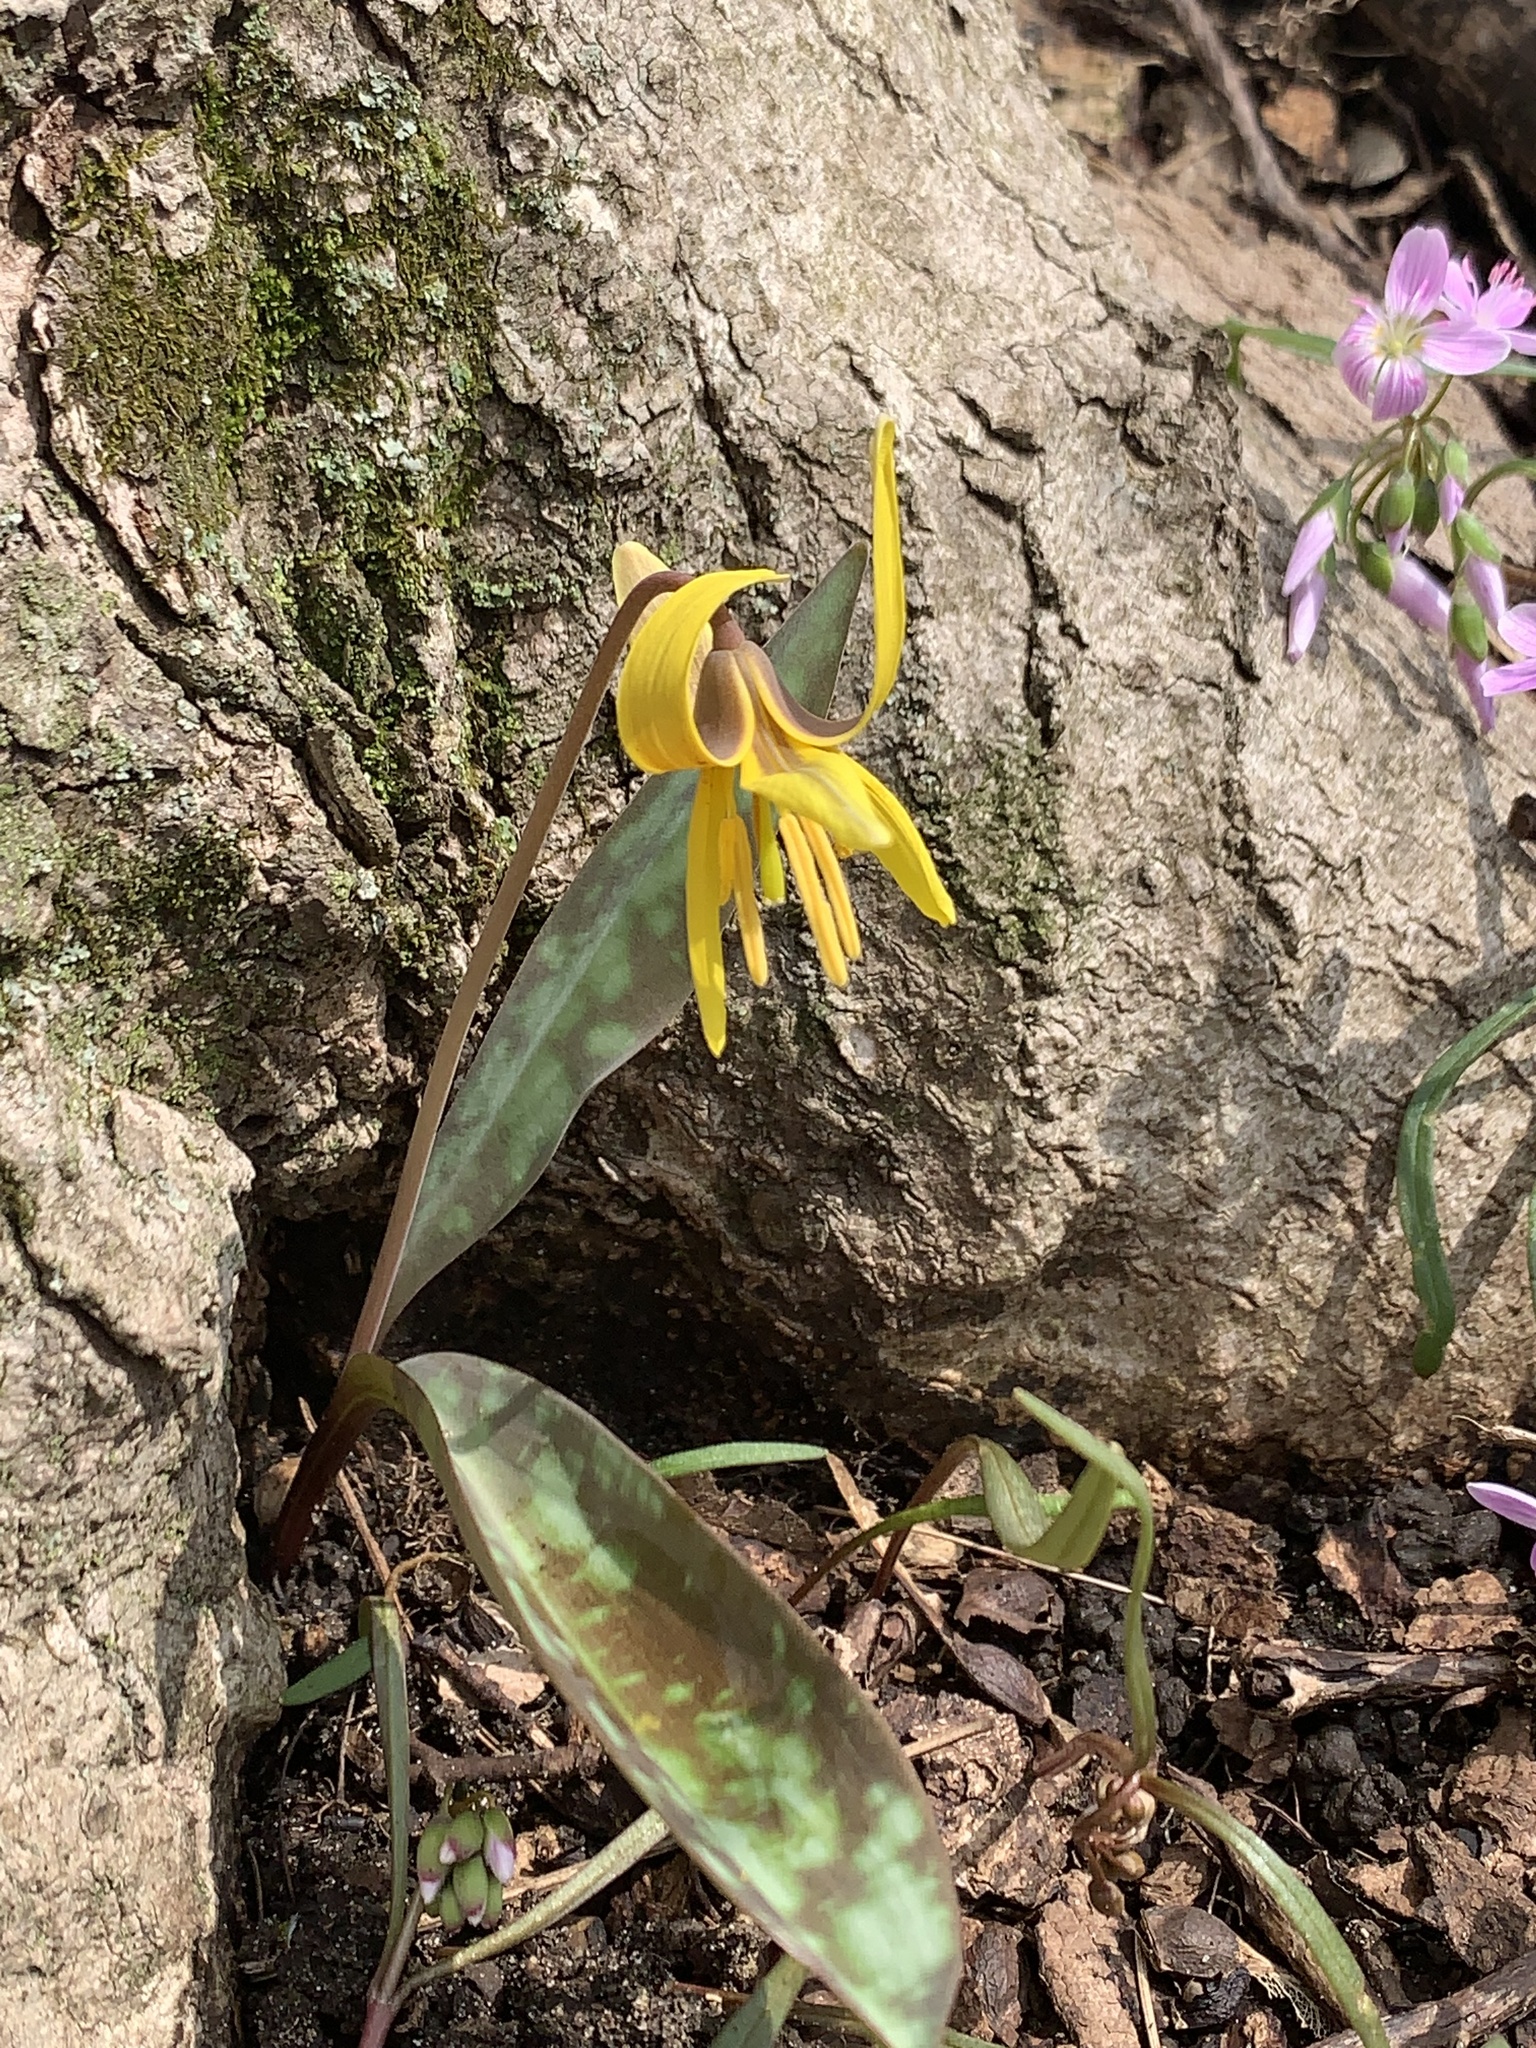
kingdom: Plantae
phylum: Tracheophyta
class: Liliopsida
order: Liliales
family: Liliaceae
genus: Erythronium
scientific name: Erythronium americanum
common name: Yellow adder's-tongue
